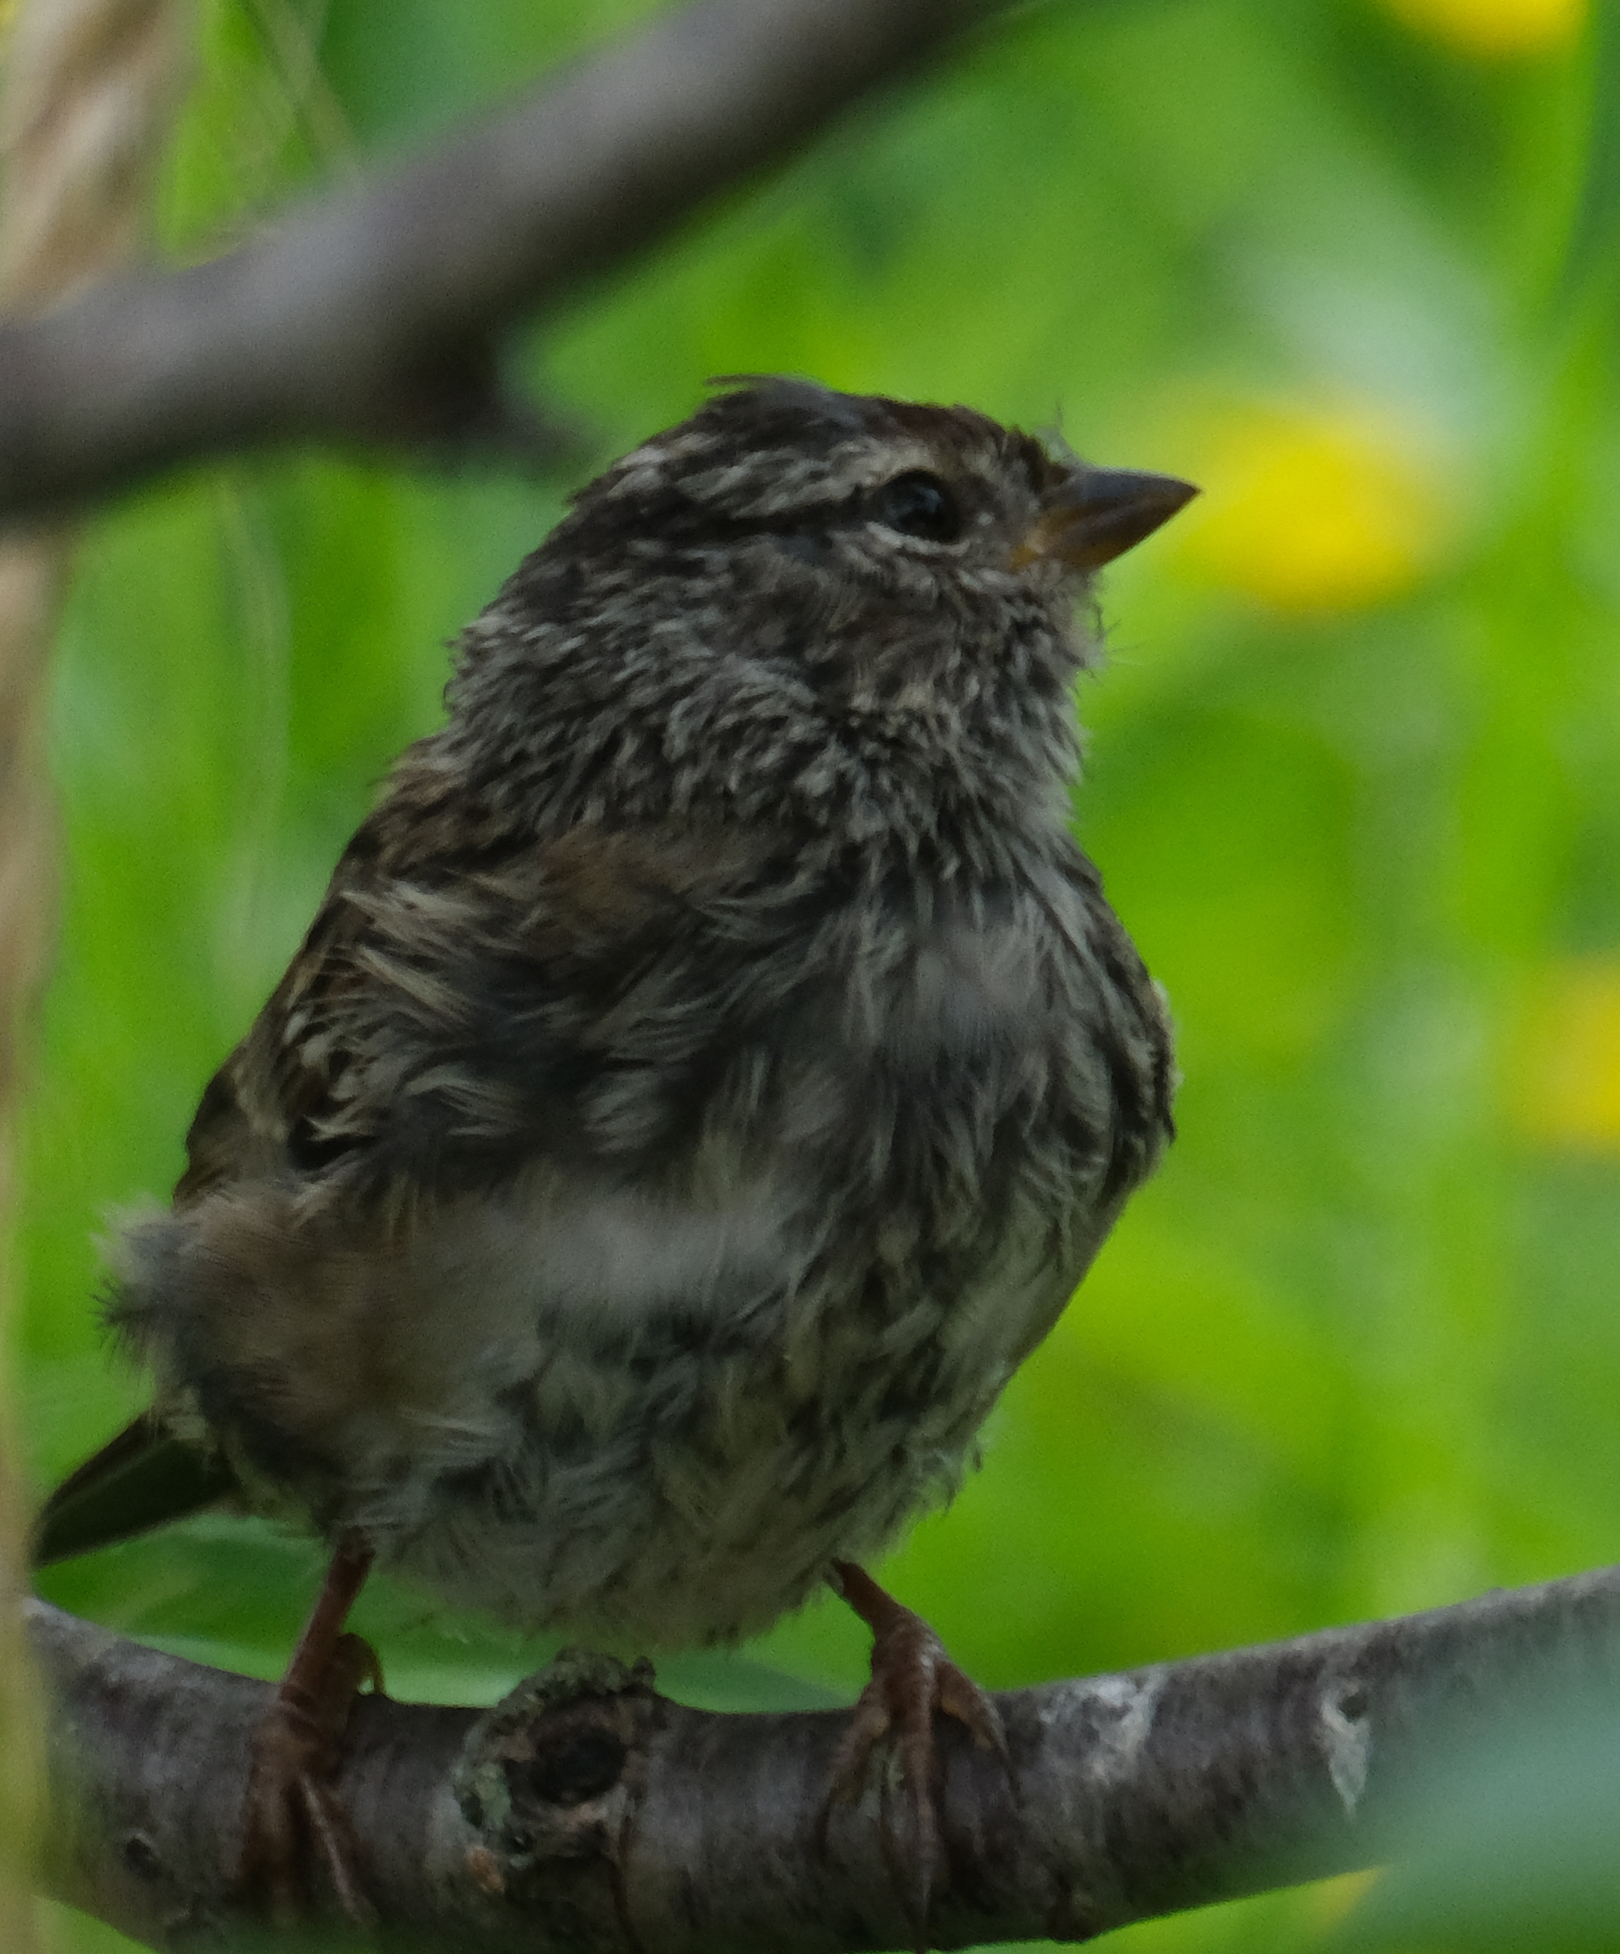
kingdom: Animalia
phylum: Chordata
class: Aves
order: Passeriformes
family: Passerellidae
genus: Zonotrichia
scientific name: Zonotrichia leucophrys
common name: White-crowned sparrow
